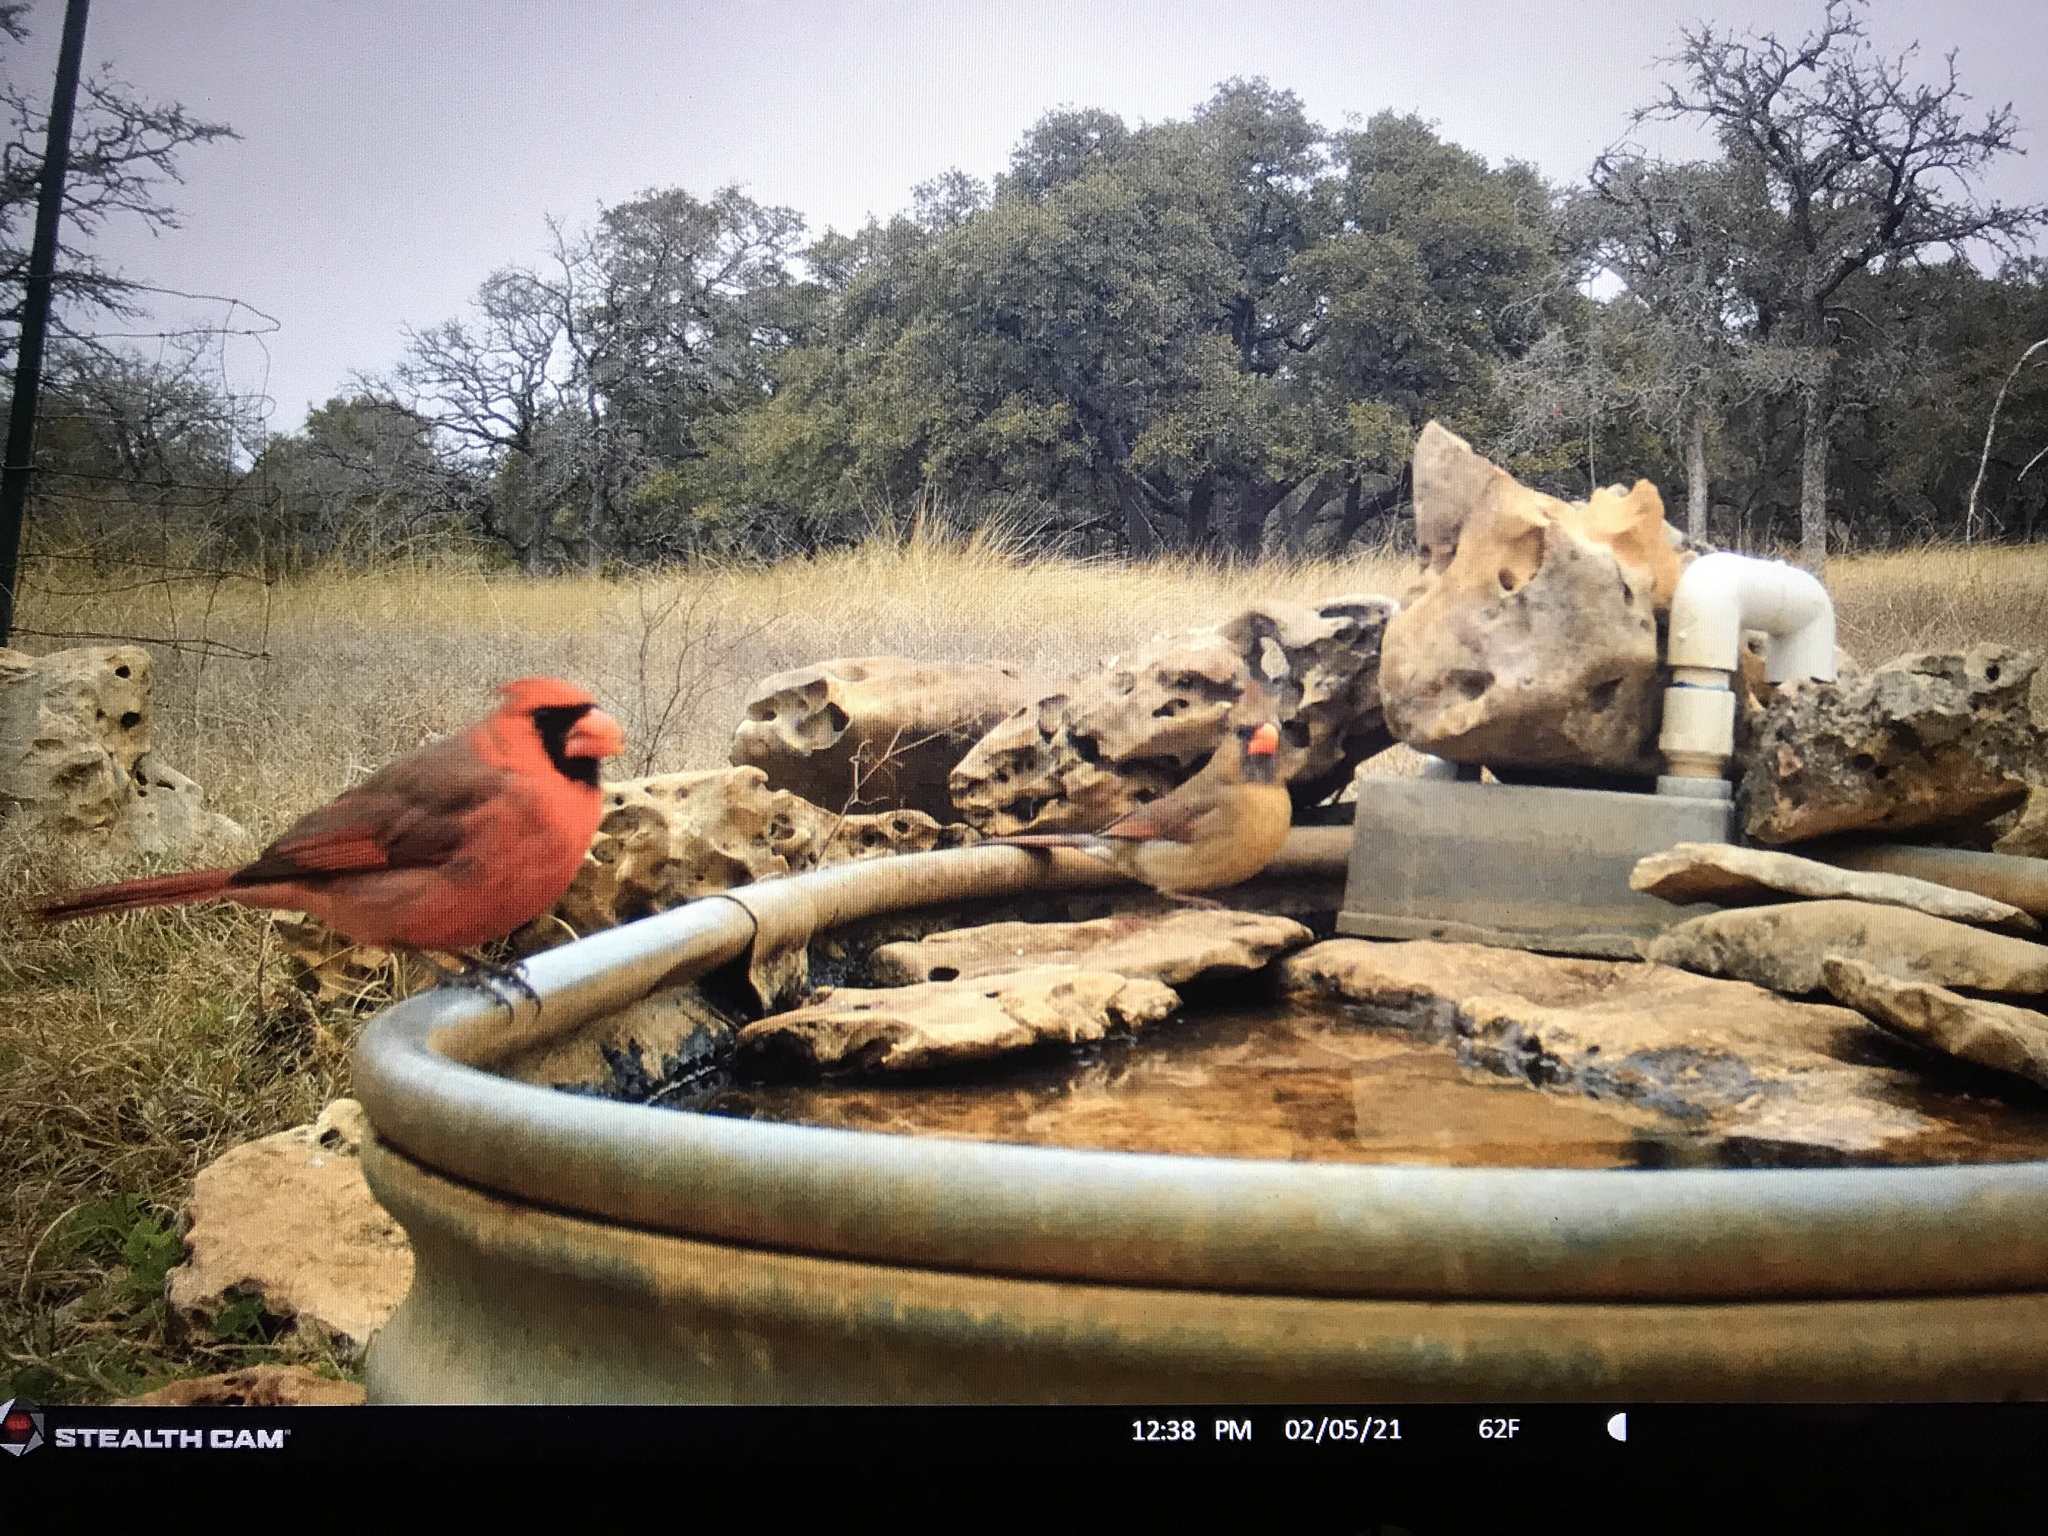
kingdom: Animalia
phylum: Chordata
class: Aves
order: Passeriformes
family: Cardinalidae
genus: Cardinalis
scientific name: Cardinalis cardinalis
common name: Northern cardinal
